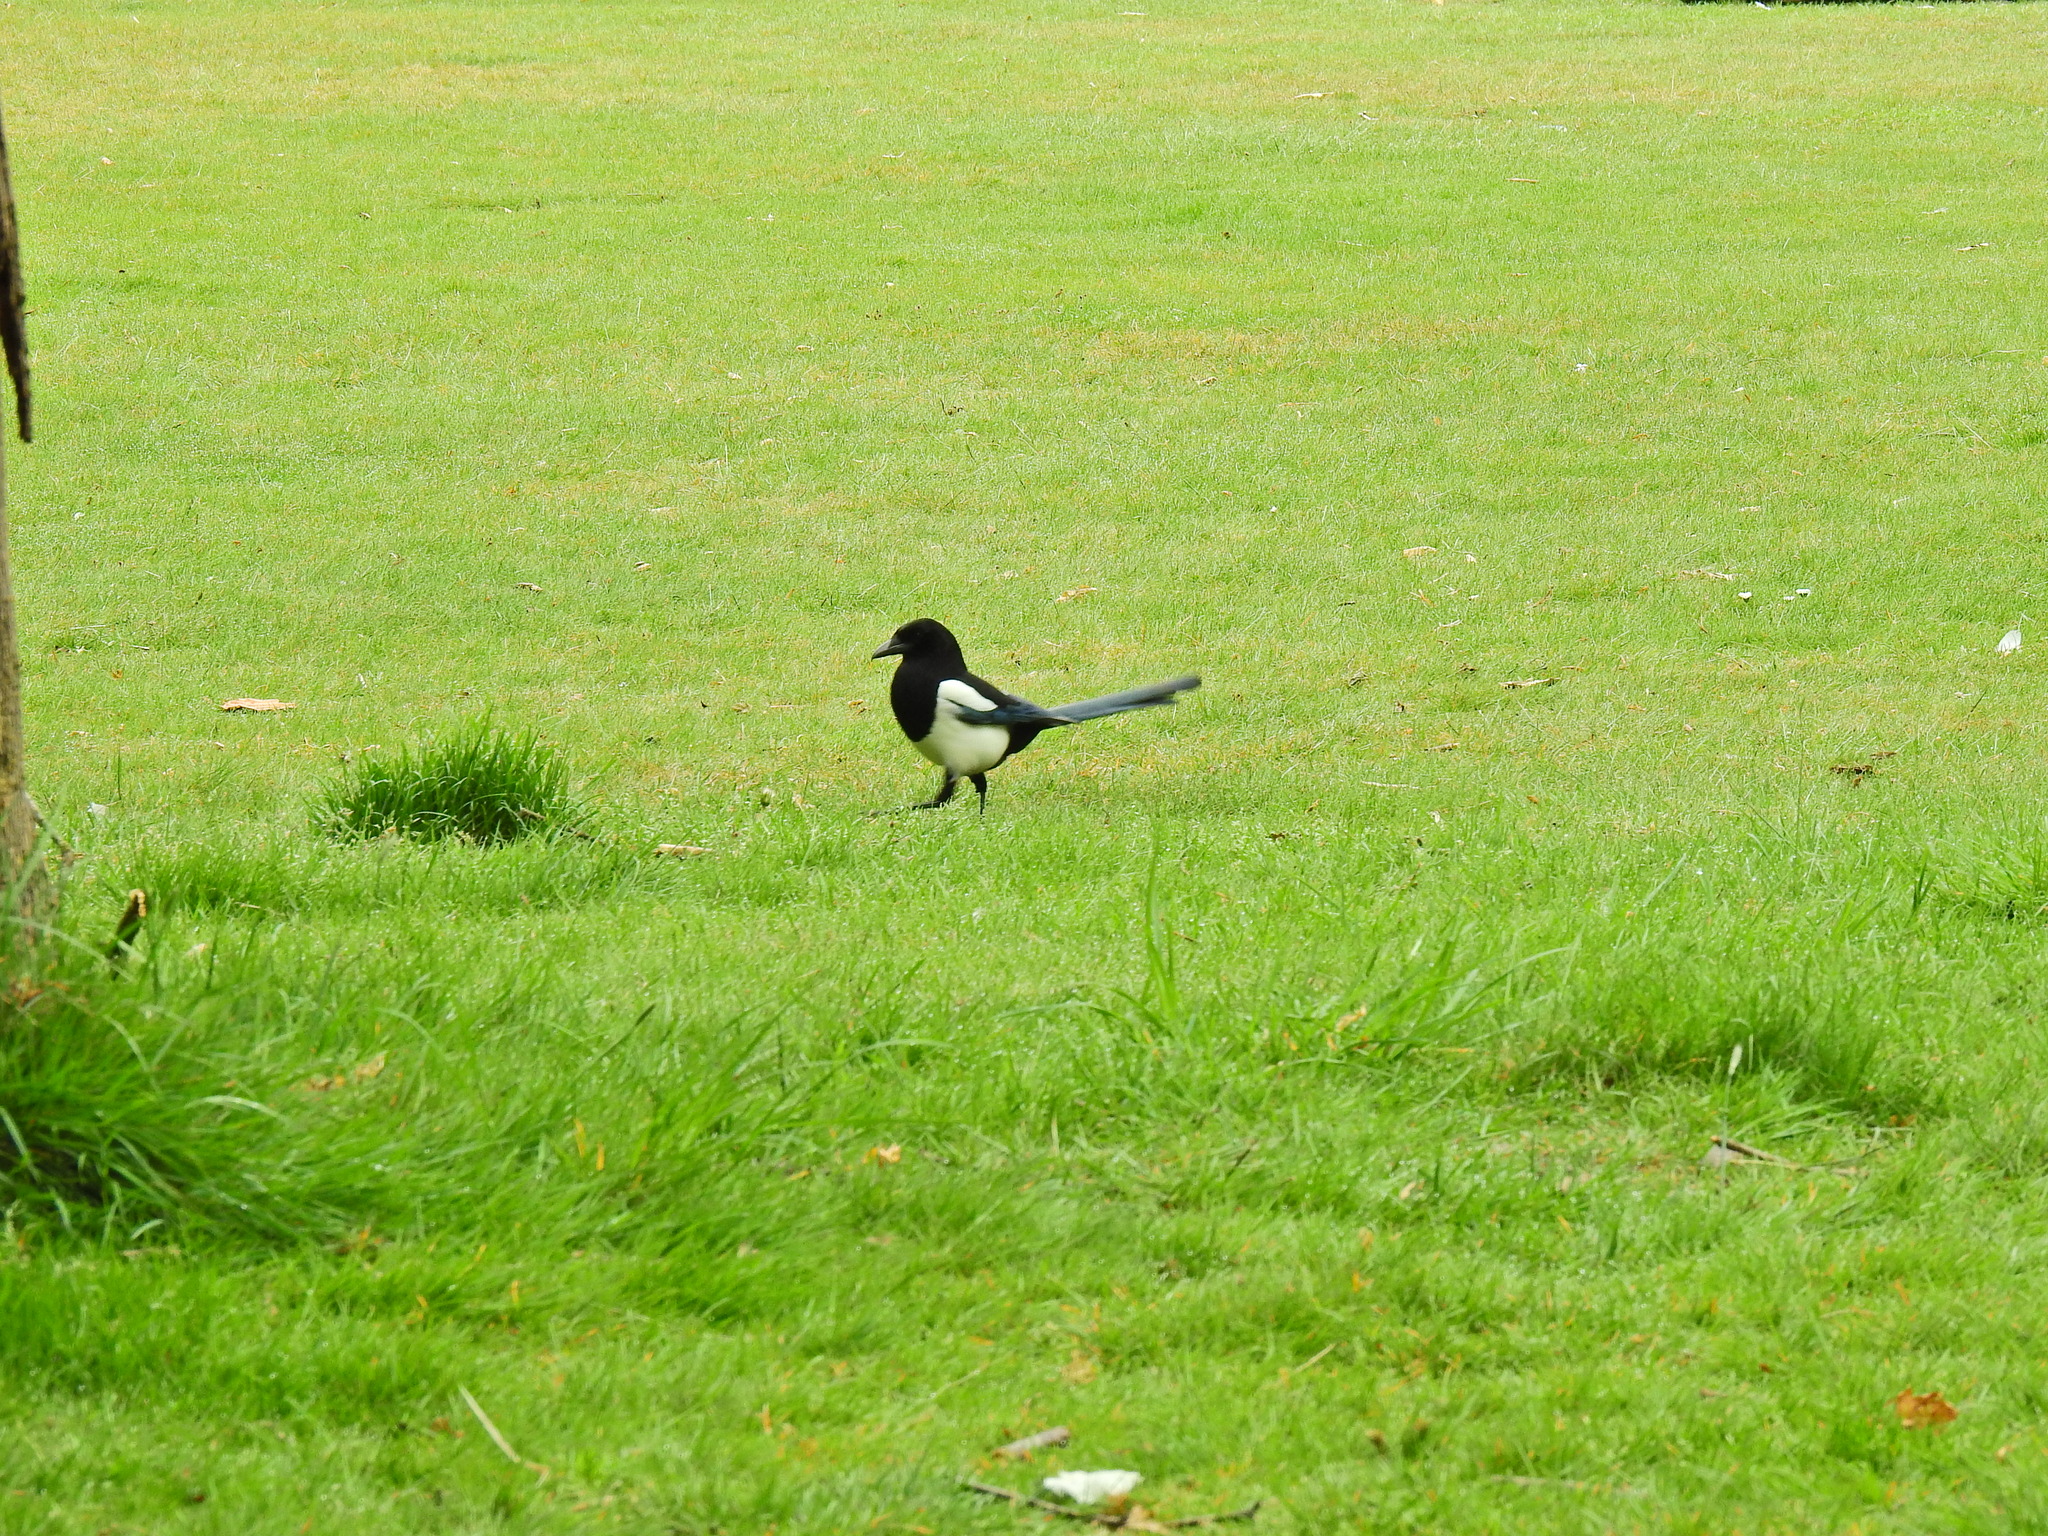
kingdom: Animalia
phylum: Chordata
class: Aves
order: Passeriformes
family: Corvidae
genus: Pica
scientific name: Pica pica
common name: Eurasian magpie
